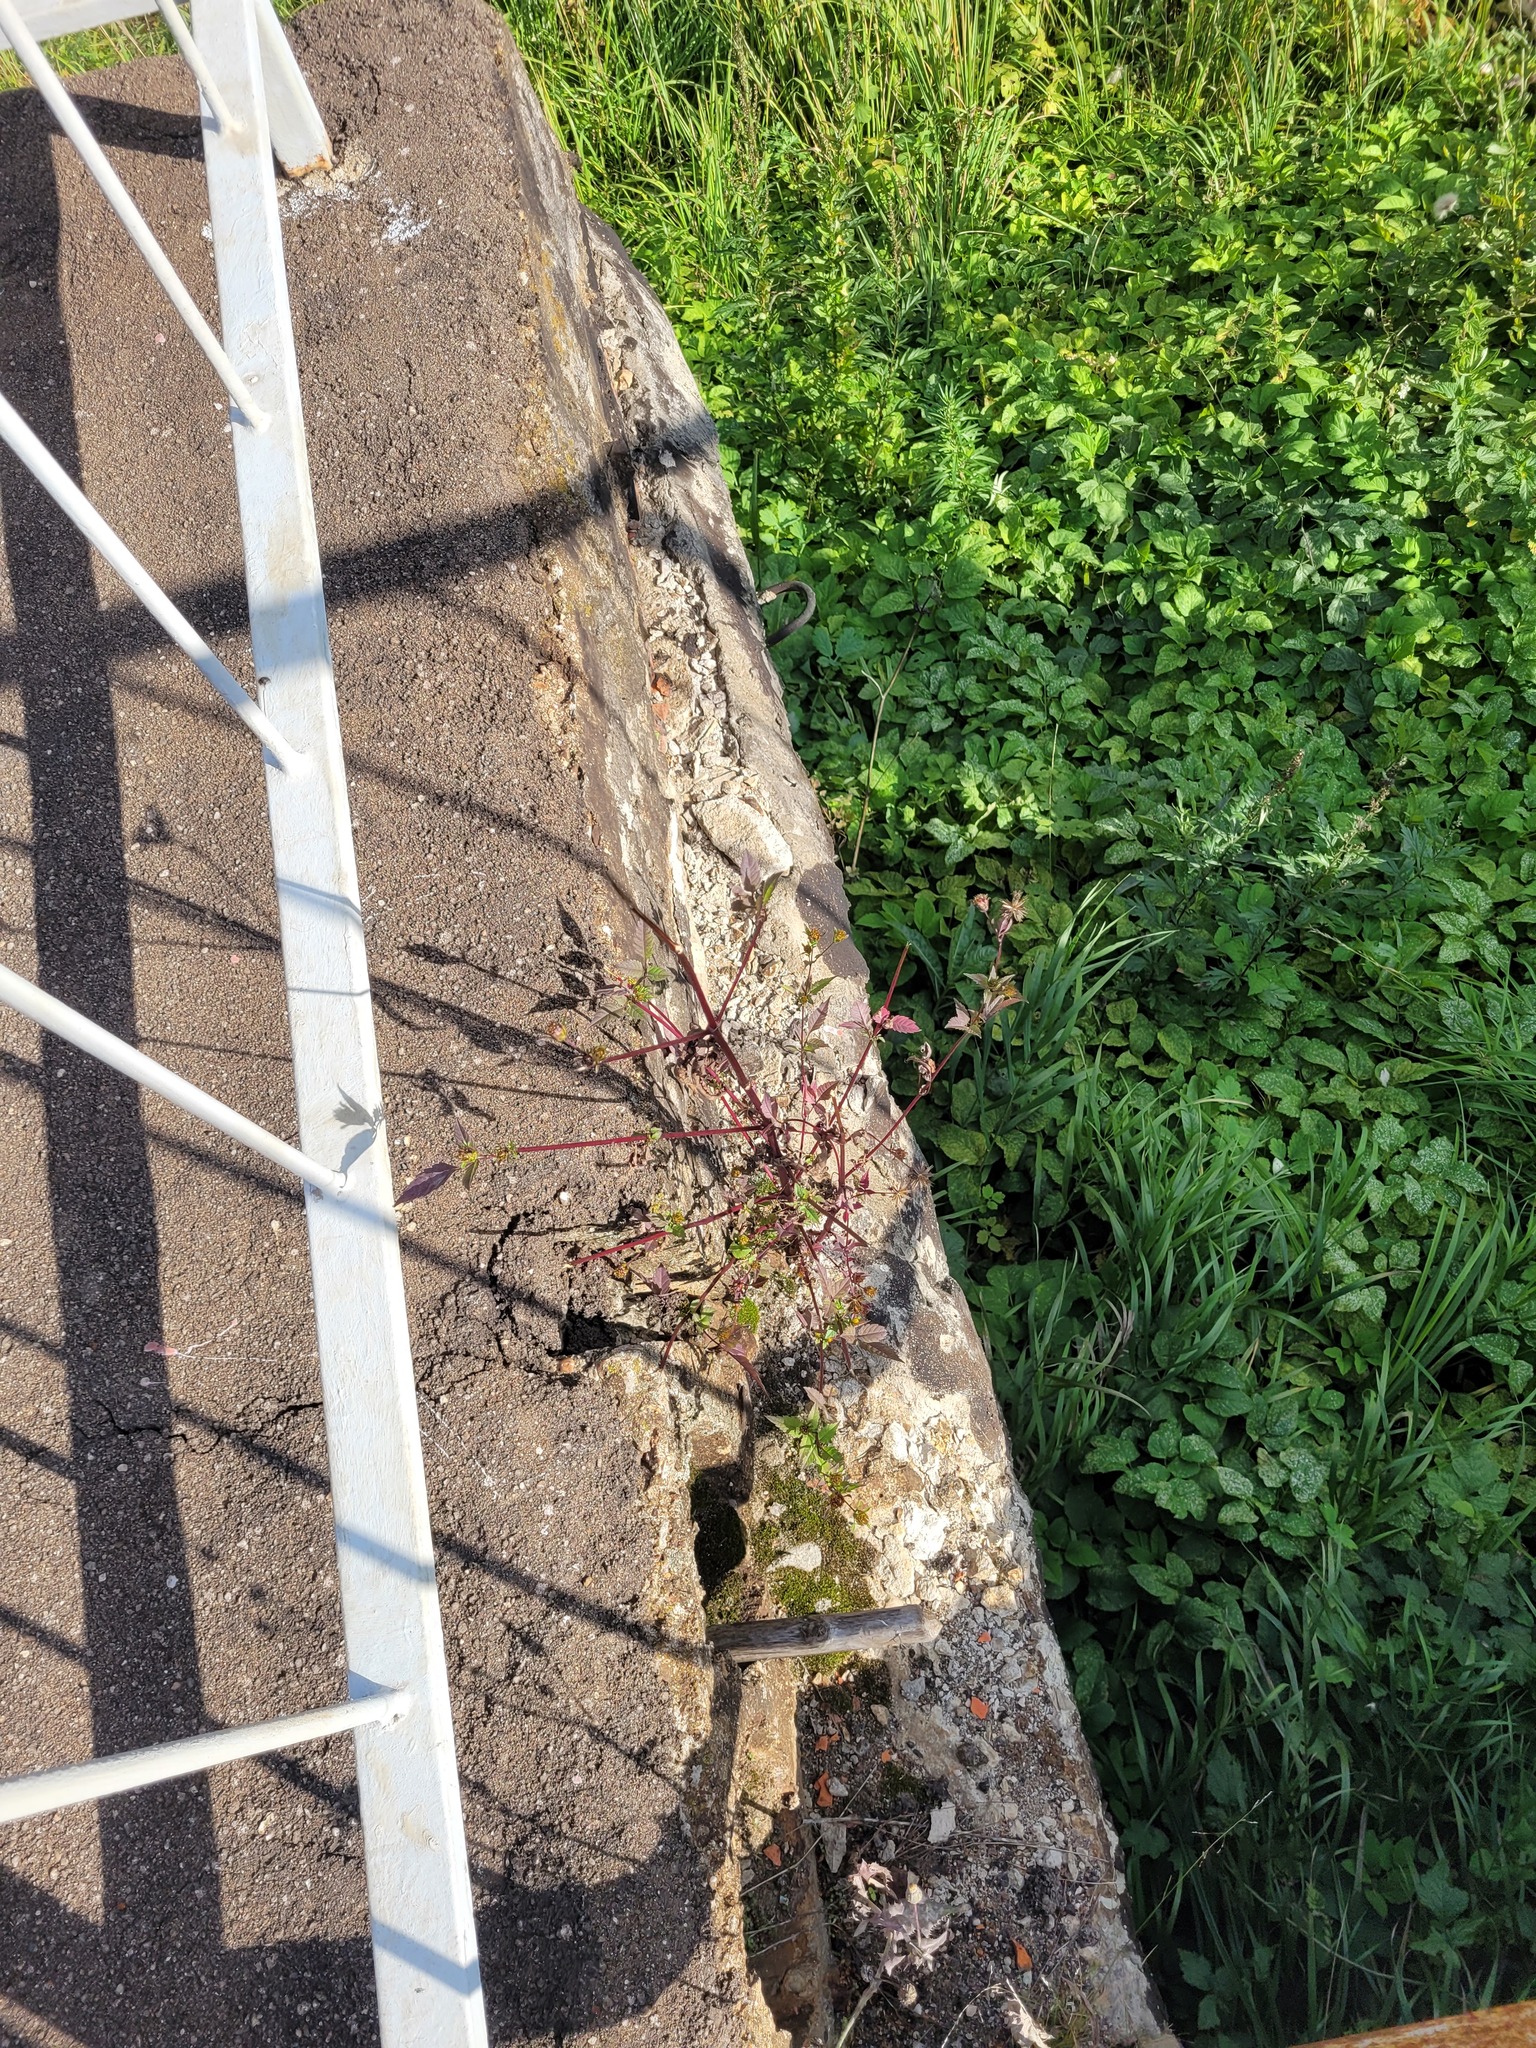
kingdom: Plantae
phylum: Tracheophyta
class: Magnoliopsida
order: Asterales
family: Asteraceae
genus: Bidens
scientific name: Bidens frondosa
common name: Beggarticks
